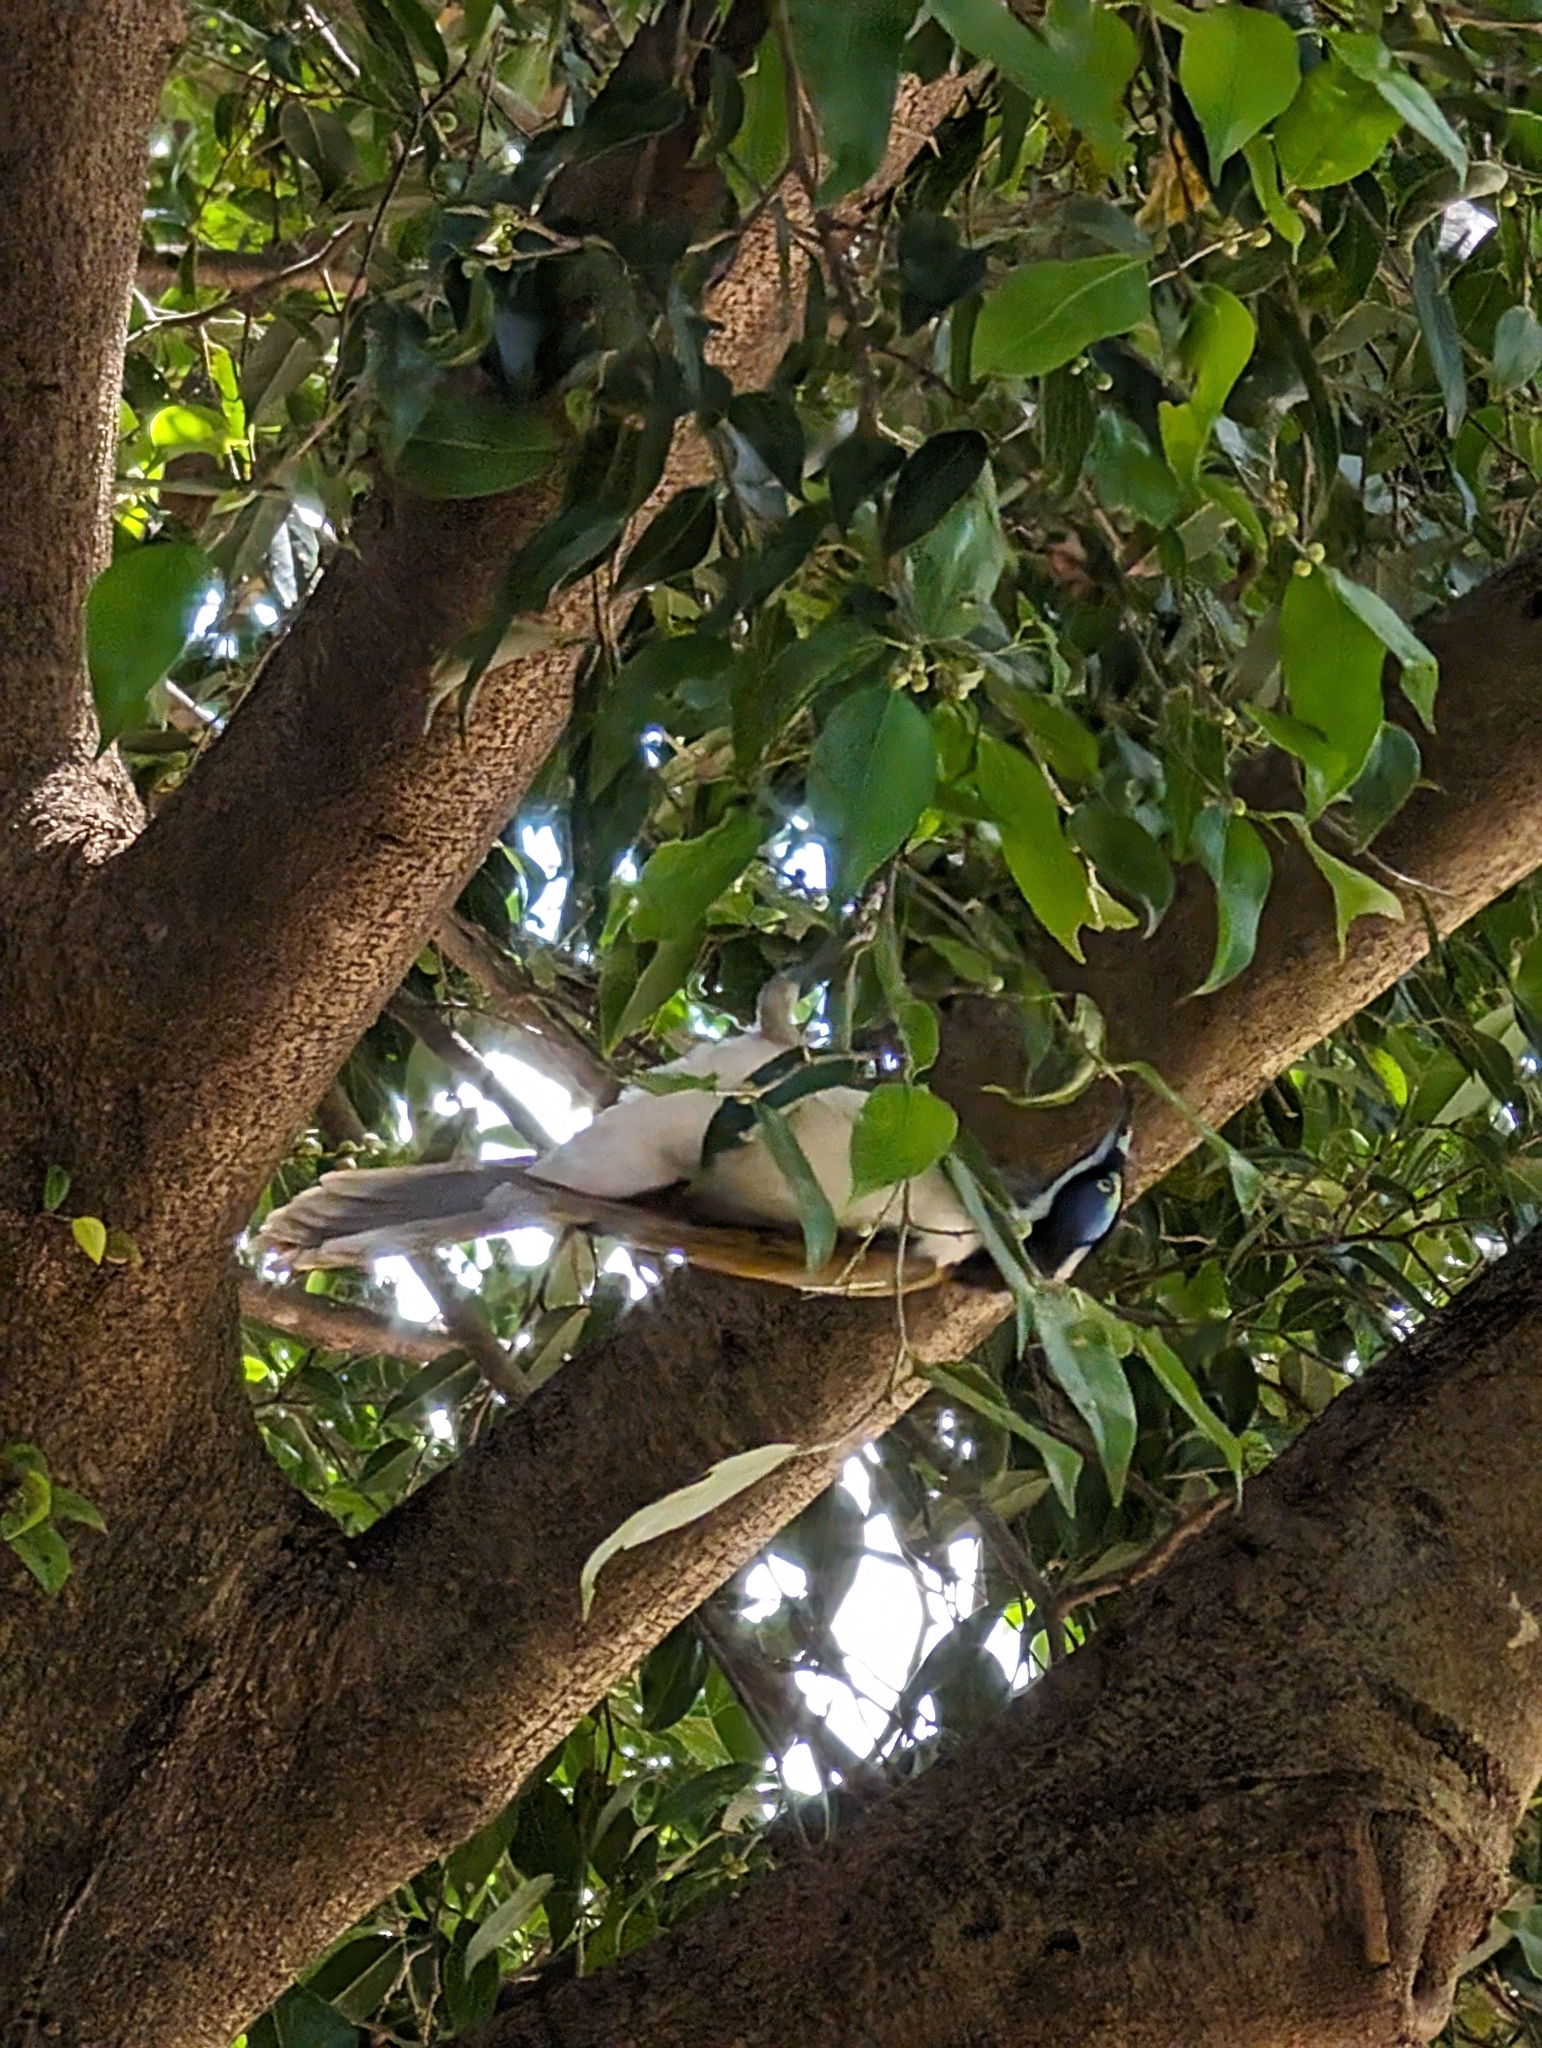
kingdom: Animalia
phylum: Chordata
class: Aves
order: Passeriformes
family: Meliphagidae
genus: Entomyzon
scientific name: Entomyzon cyanotis
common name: Blue-faced honeyeater
